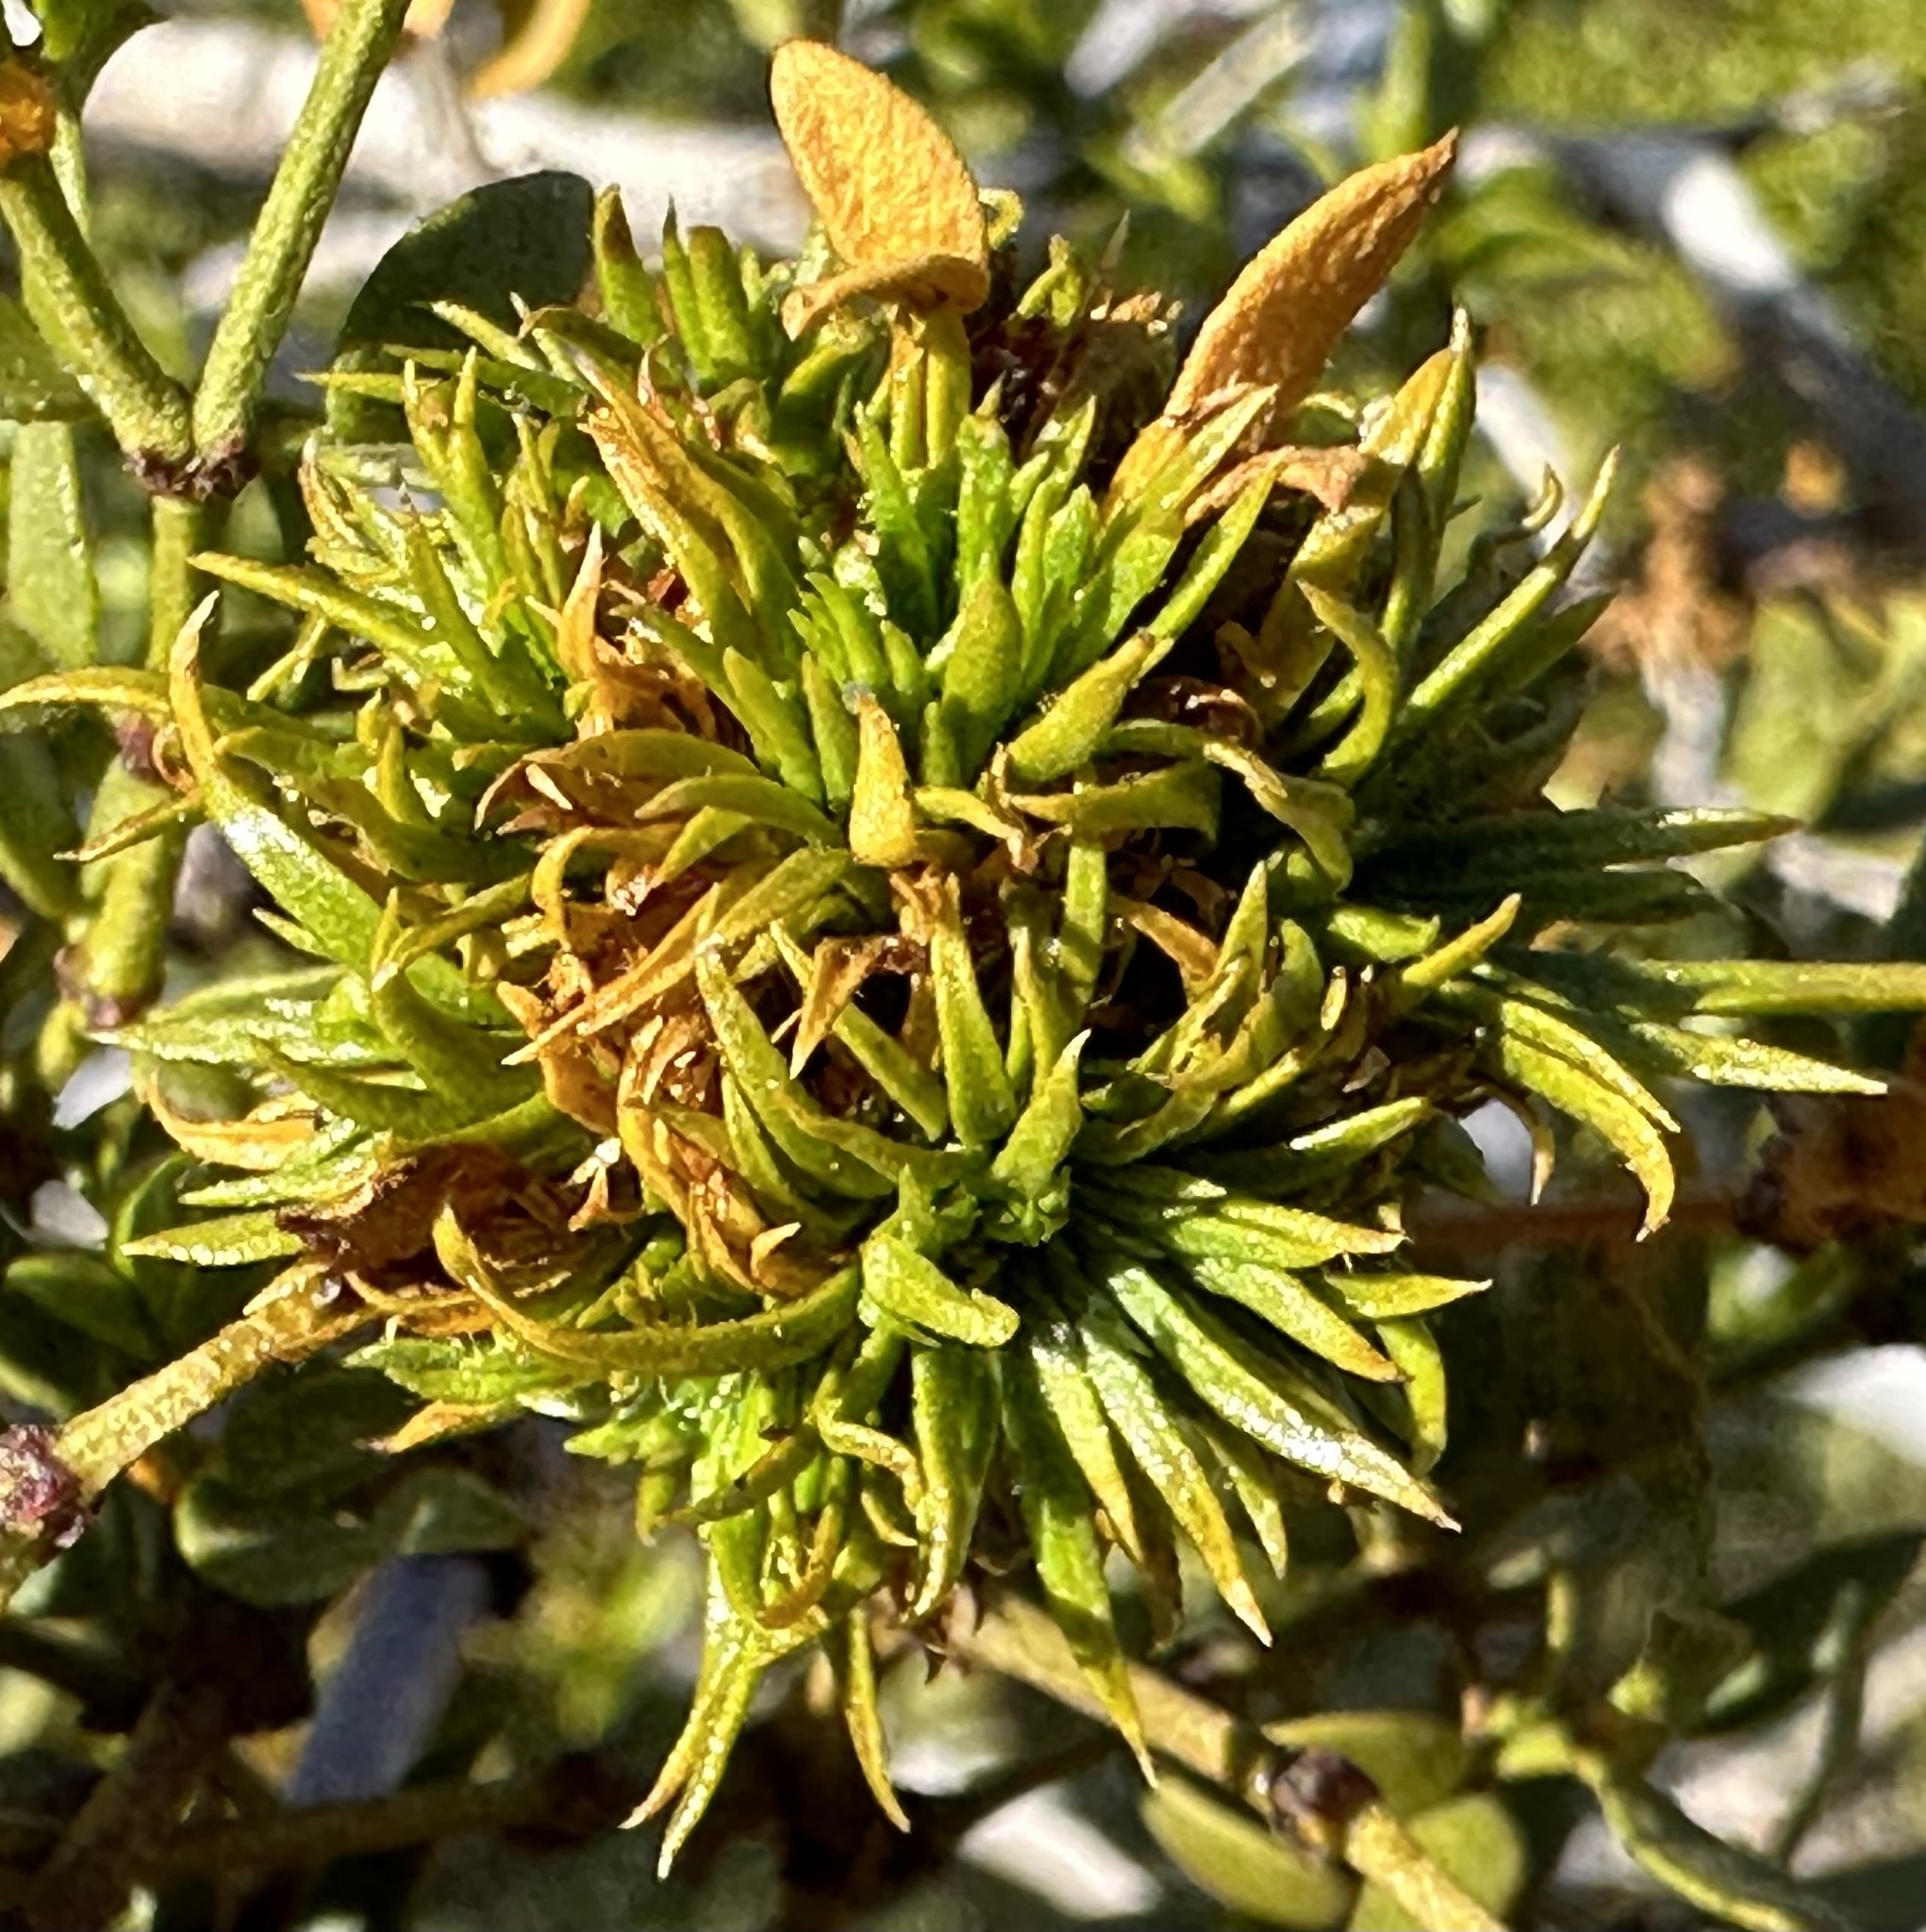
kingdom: Animalia
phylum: Arthropoda
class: Insecta
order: Diptera
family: Cecidomyiidae
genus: Asphondylia
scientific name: Asphondylia auripila
